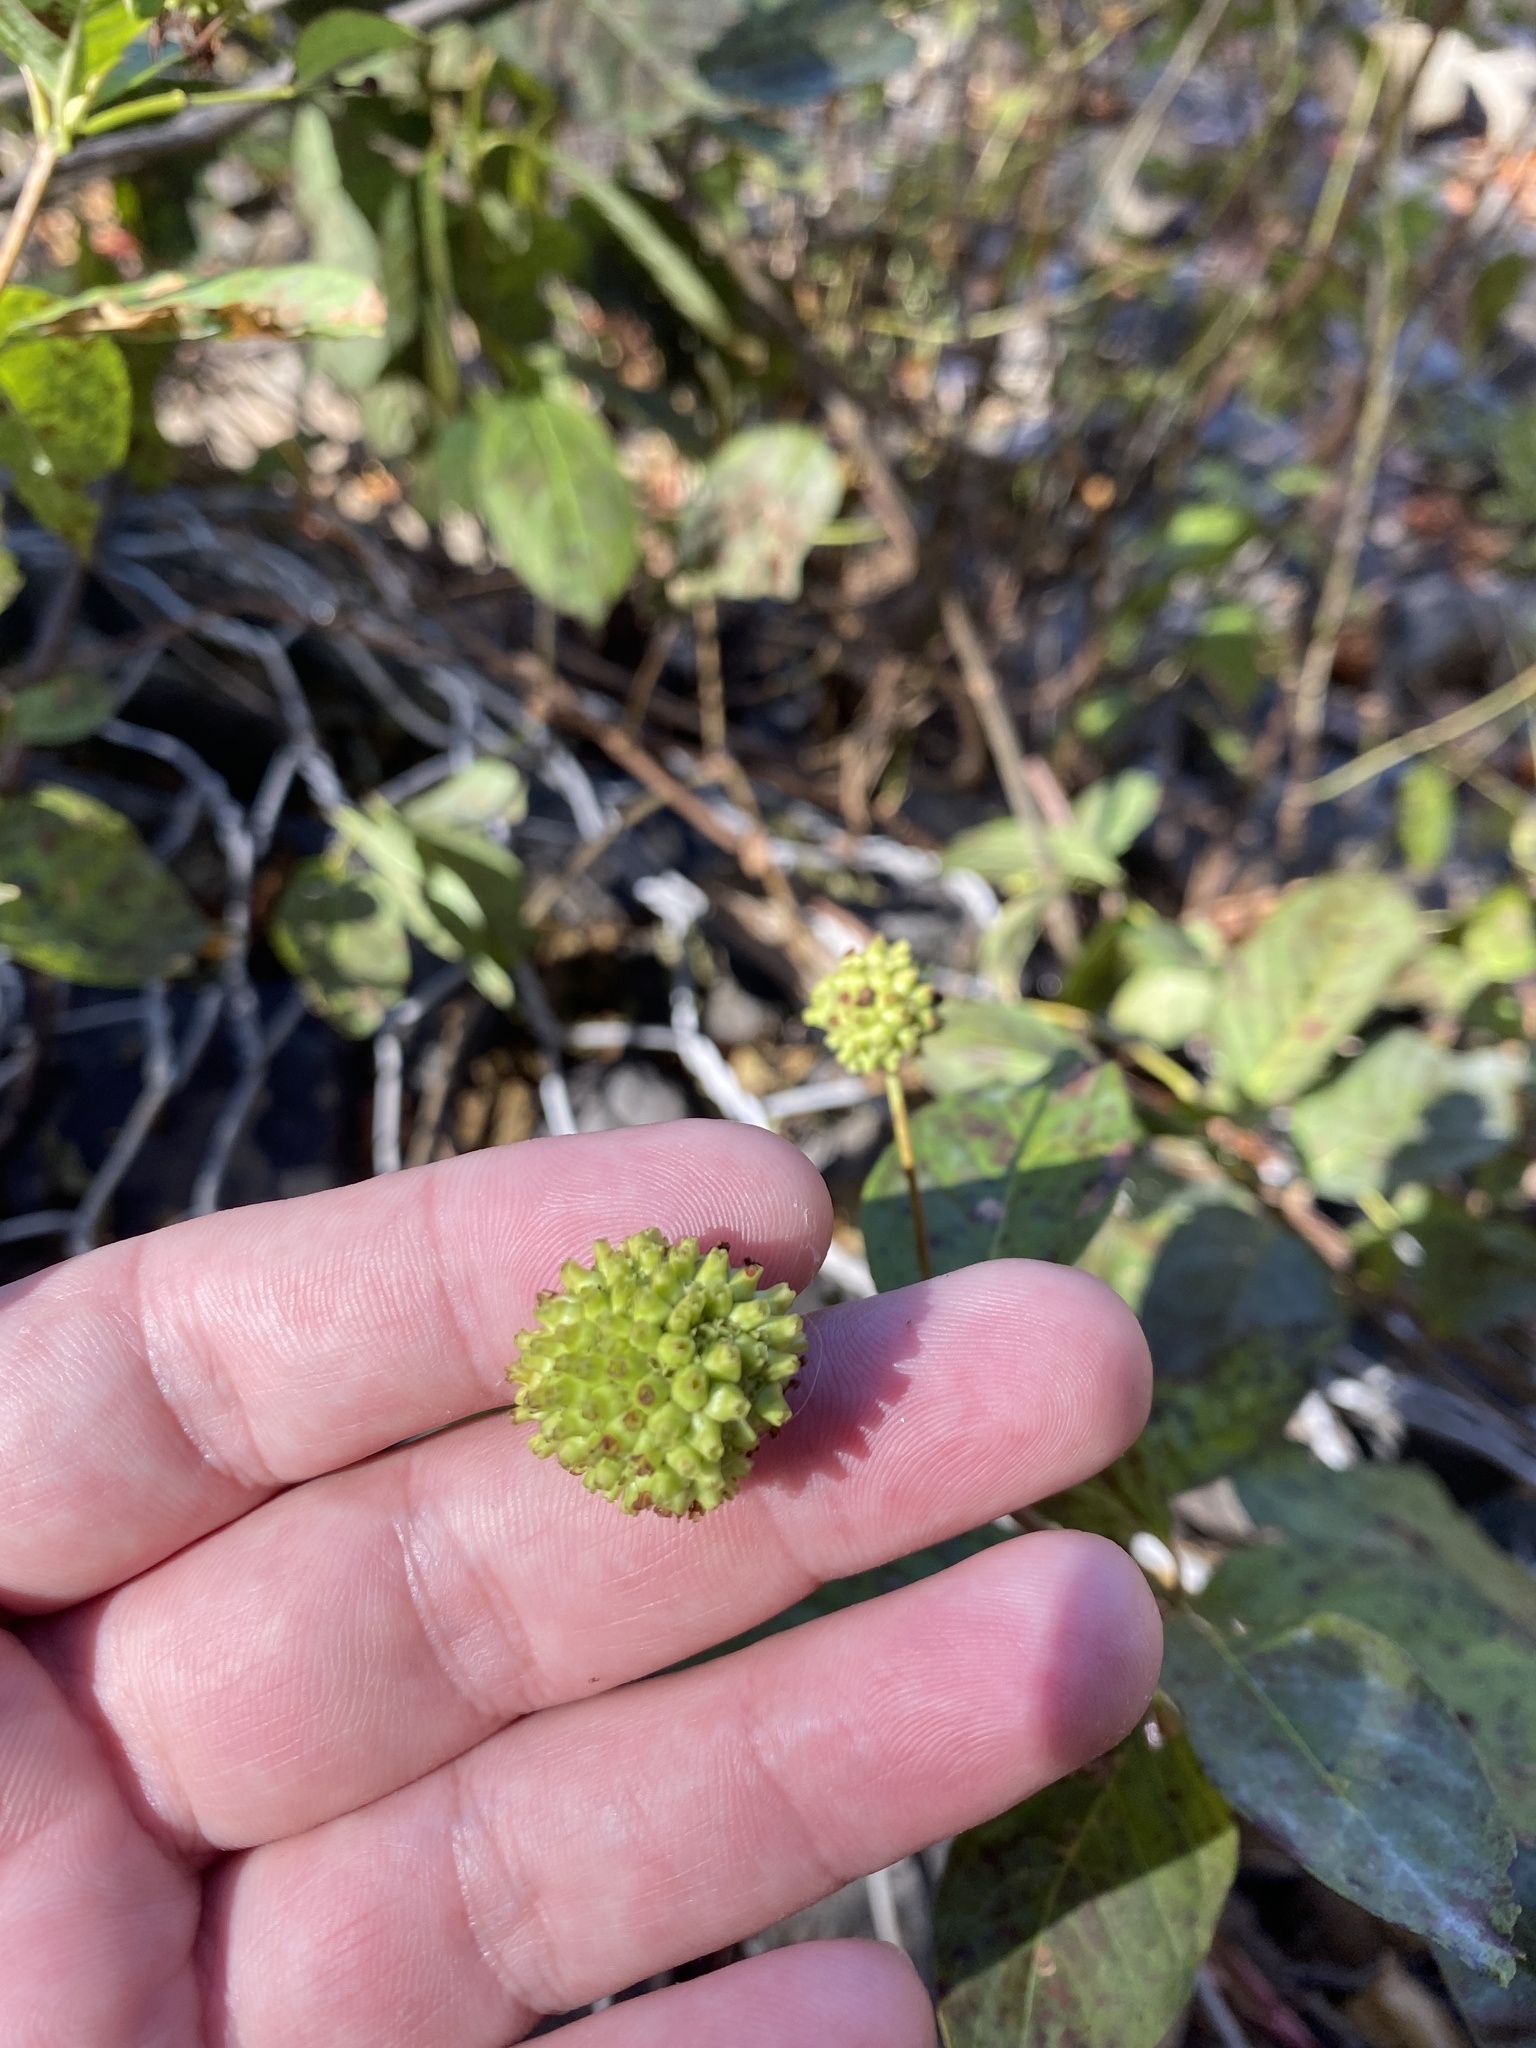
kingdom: Plantae
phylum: Tracheophyta
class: Magnoliopsida
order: Gentianales
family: Rubiaceae
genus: Cephalanthus
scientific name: Cephalanthus occidentalis
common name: Button-willow
